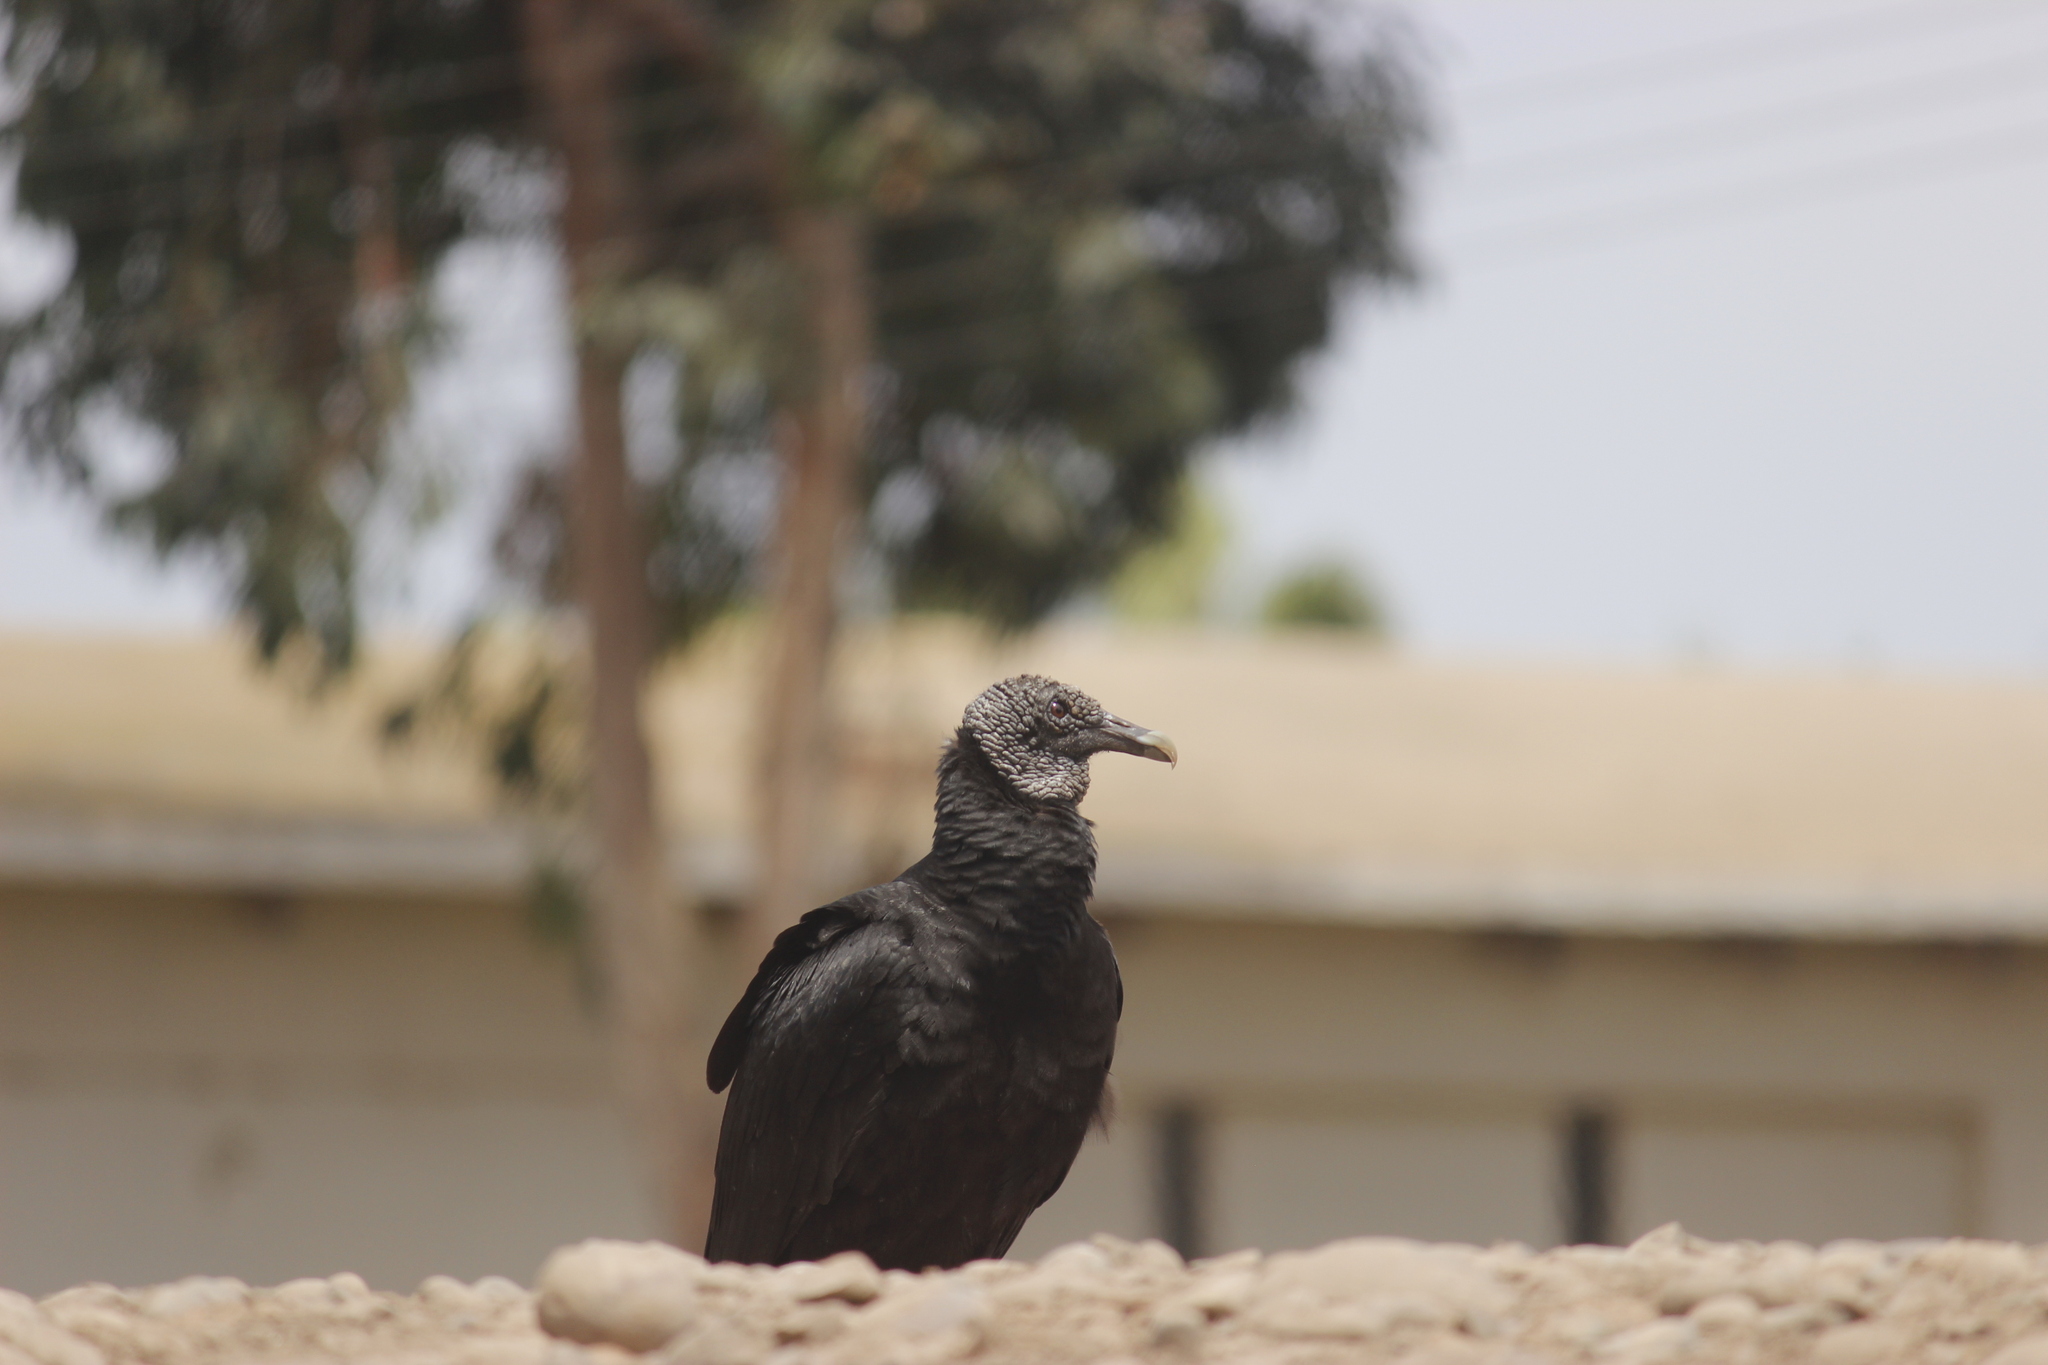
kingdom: Animalia
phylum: Chordata
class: Aves
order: Accipitriformes
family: Cathartidae
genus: Coragyps
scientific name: Coragyps atratus
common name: Black vulture
